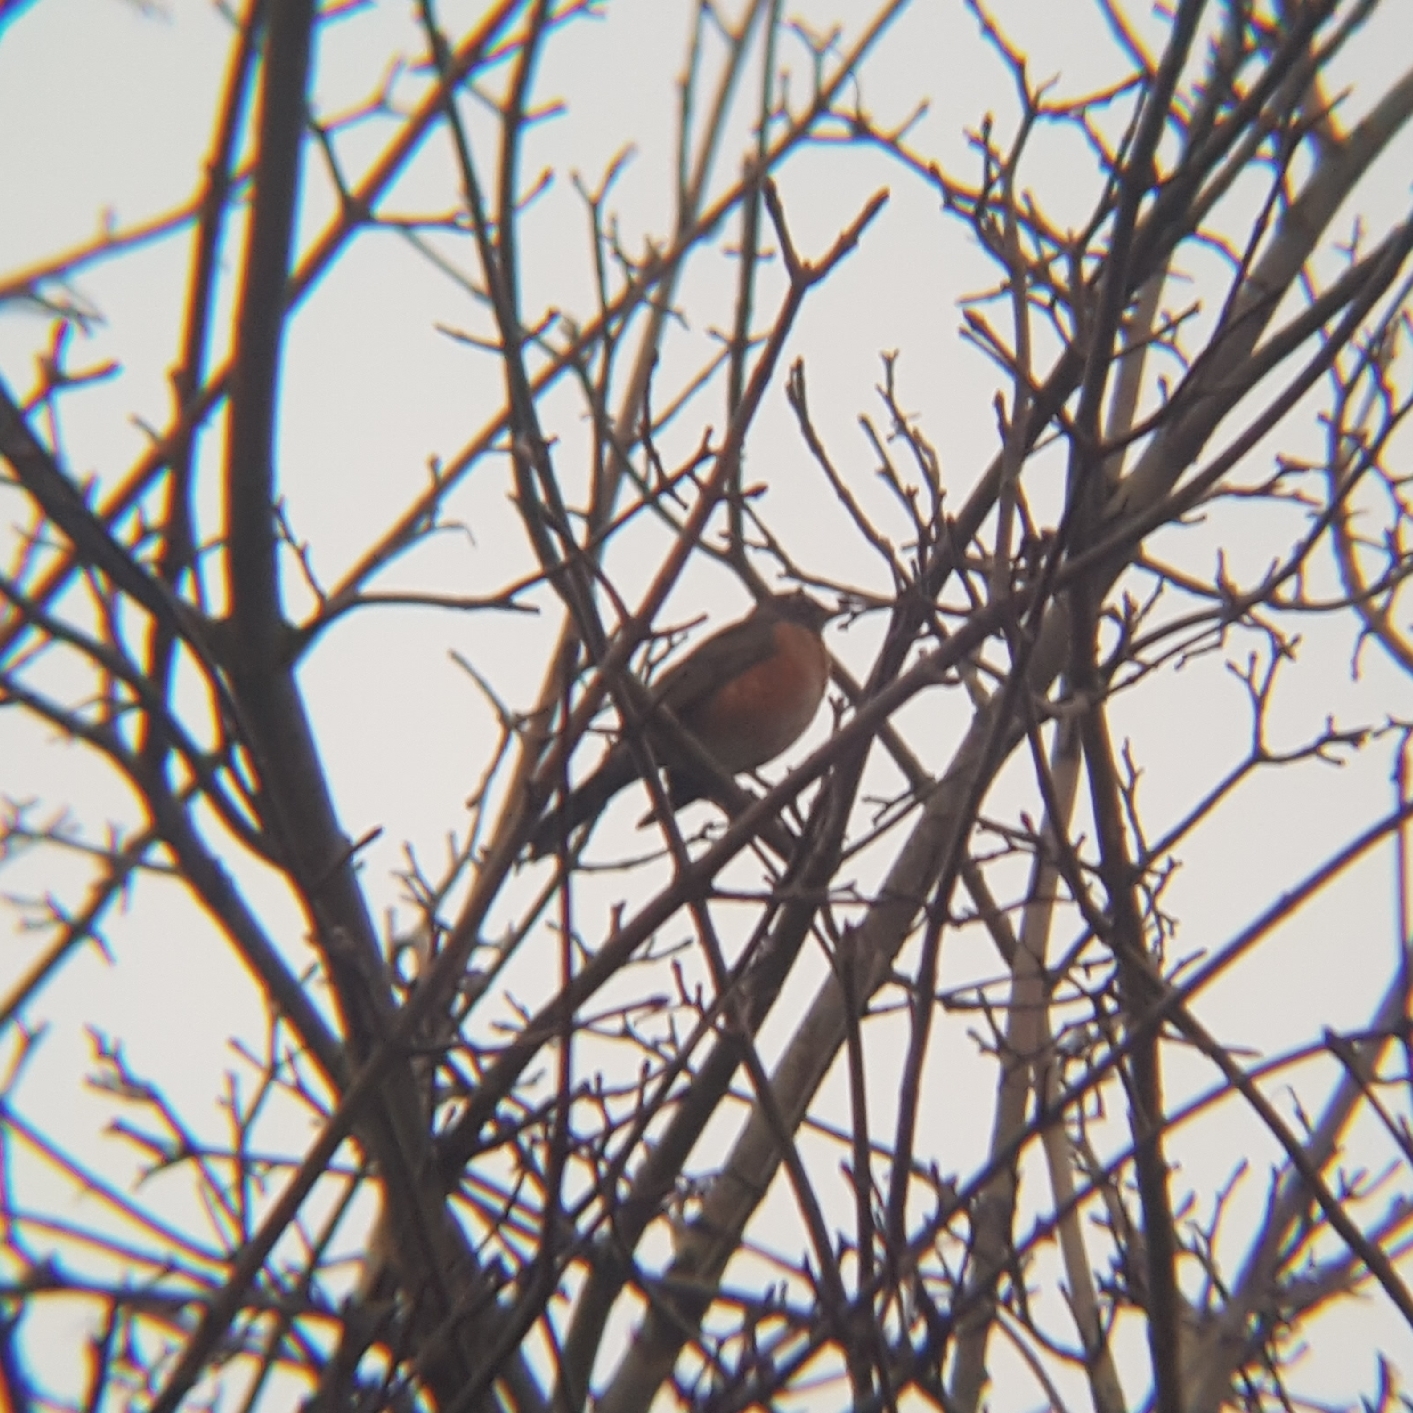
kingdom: Animalia
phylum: Chordata
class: Aves
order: Passeriformes
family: Turdidae
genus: Turdus
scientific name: Turdus migratorius
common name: American robin
